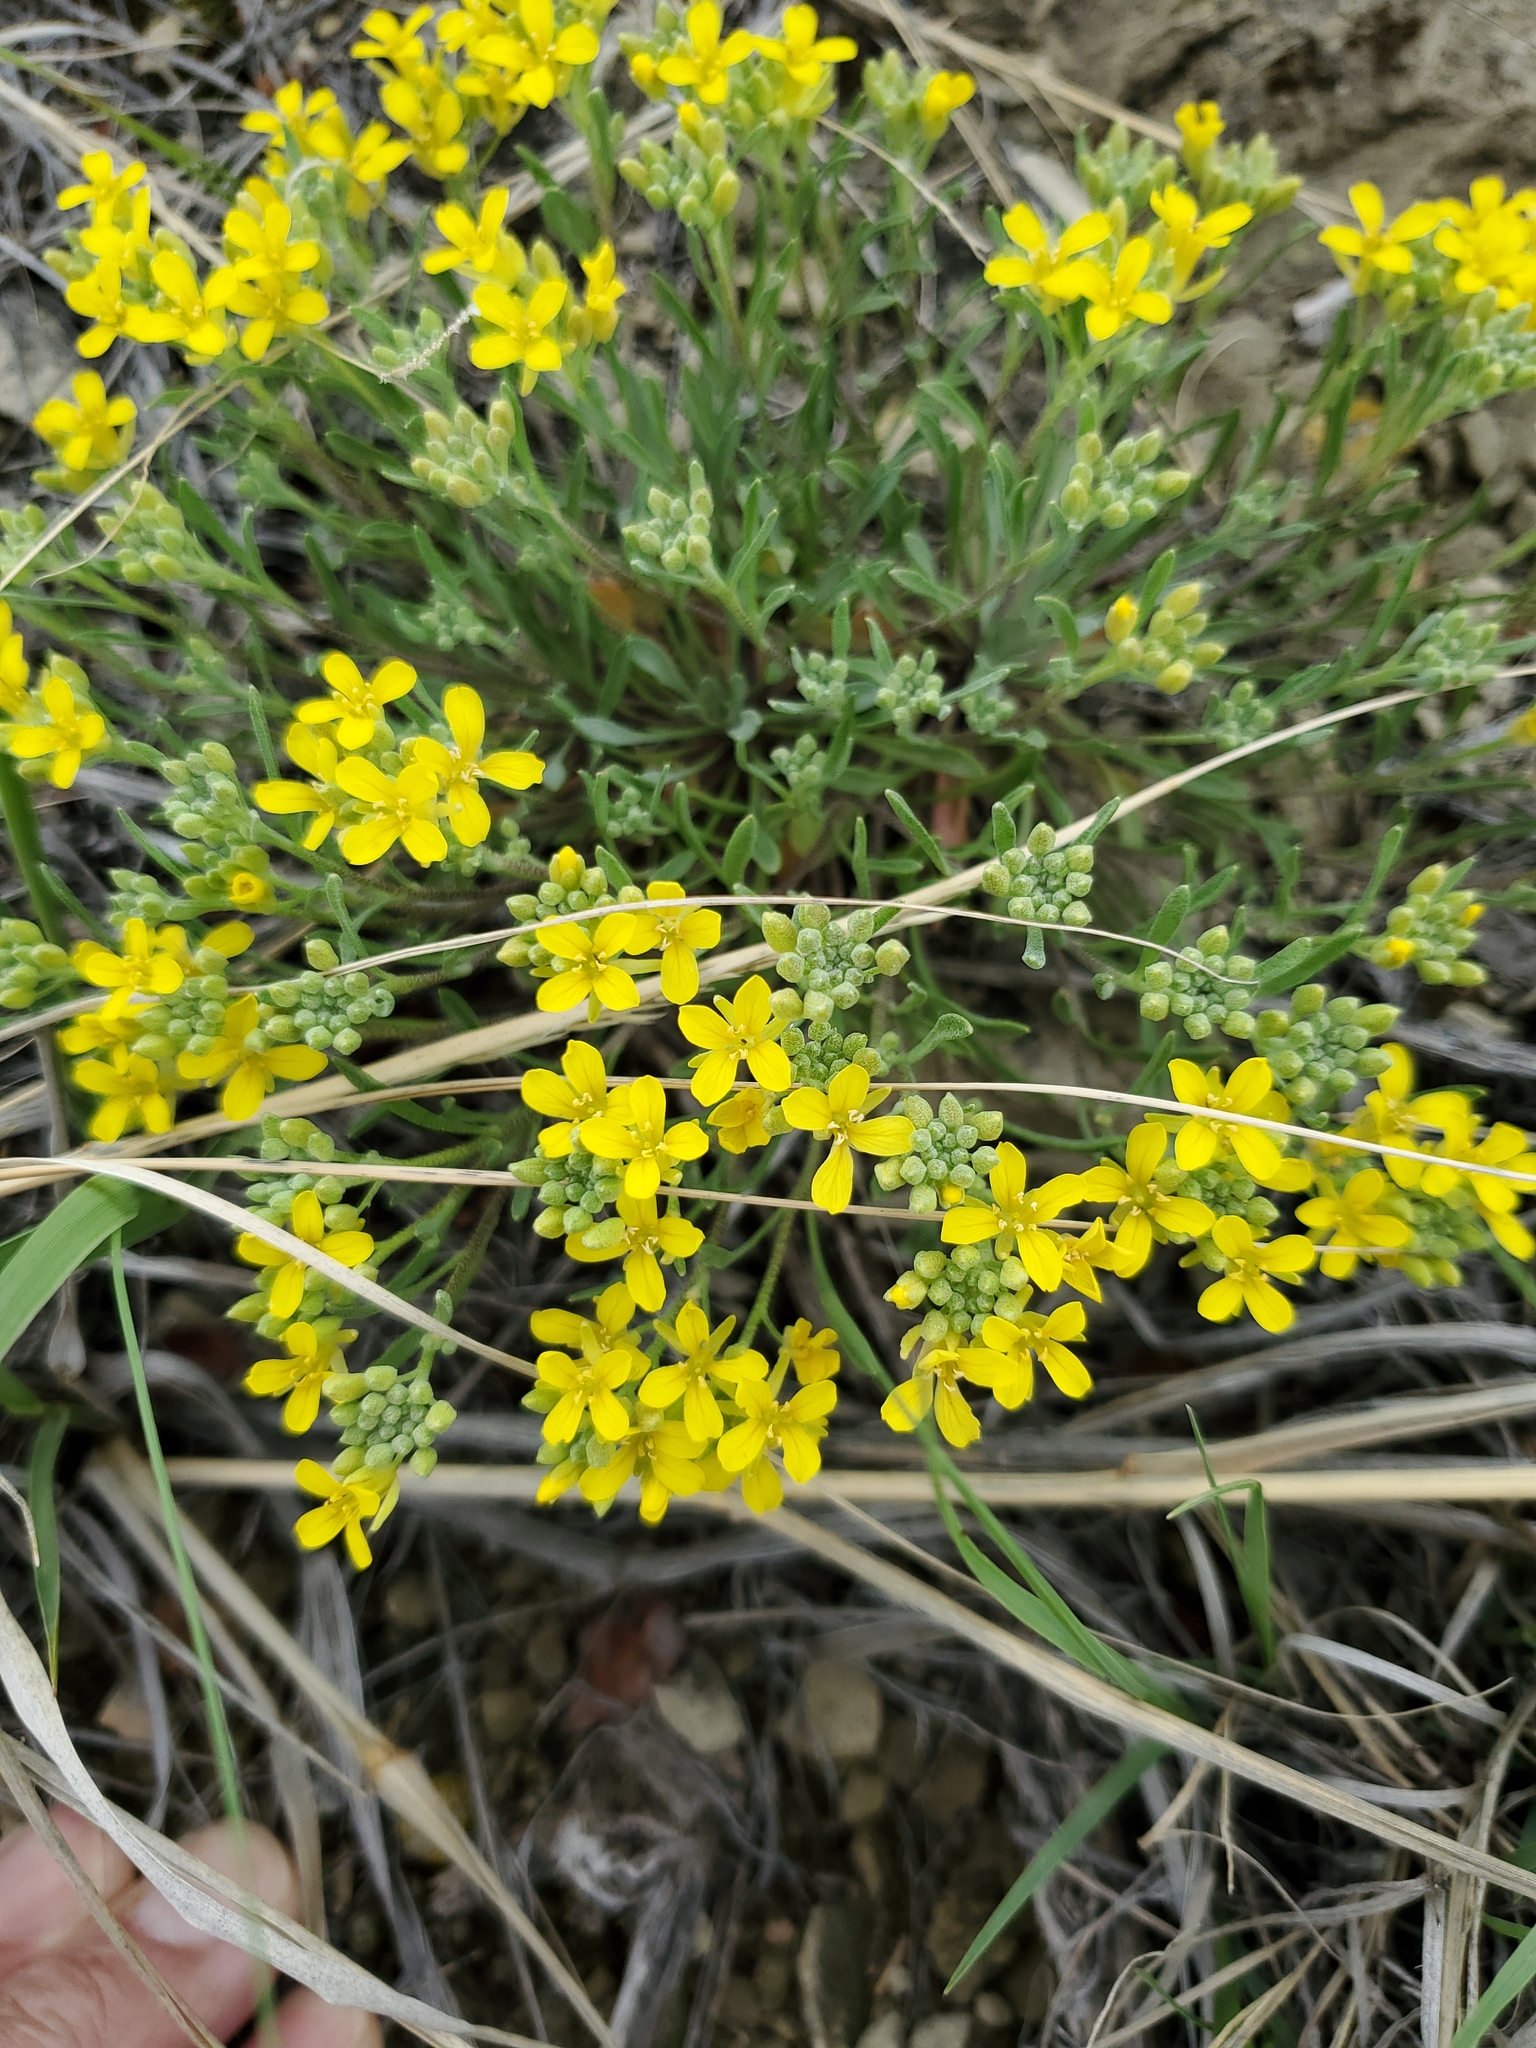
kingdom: Plantae
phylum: Tracheophyta
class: Magnoliopsida
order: Brassicales
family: Brassicaceae
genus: Physaria
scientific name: Physaria arenosa
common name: Great plains bladderpod
